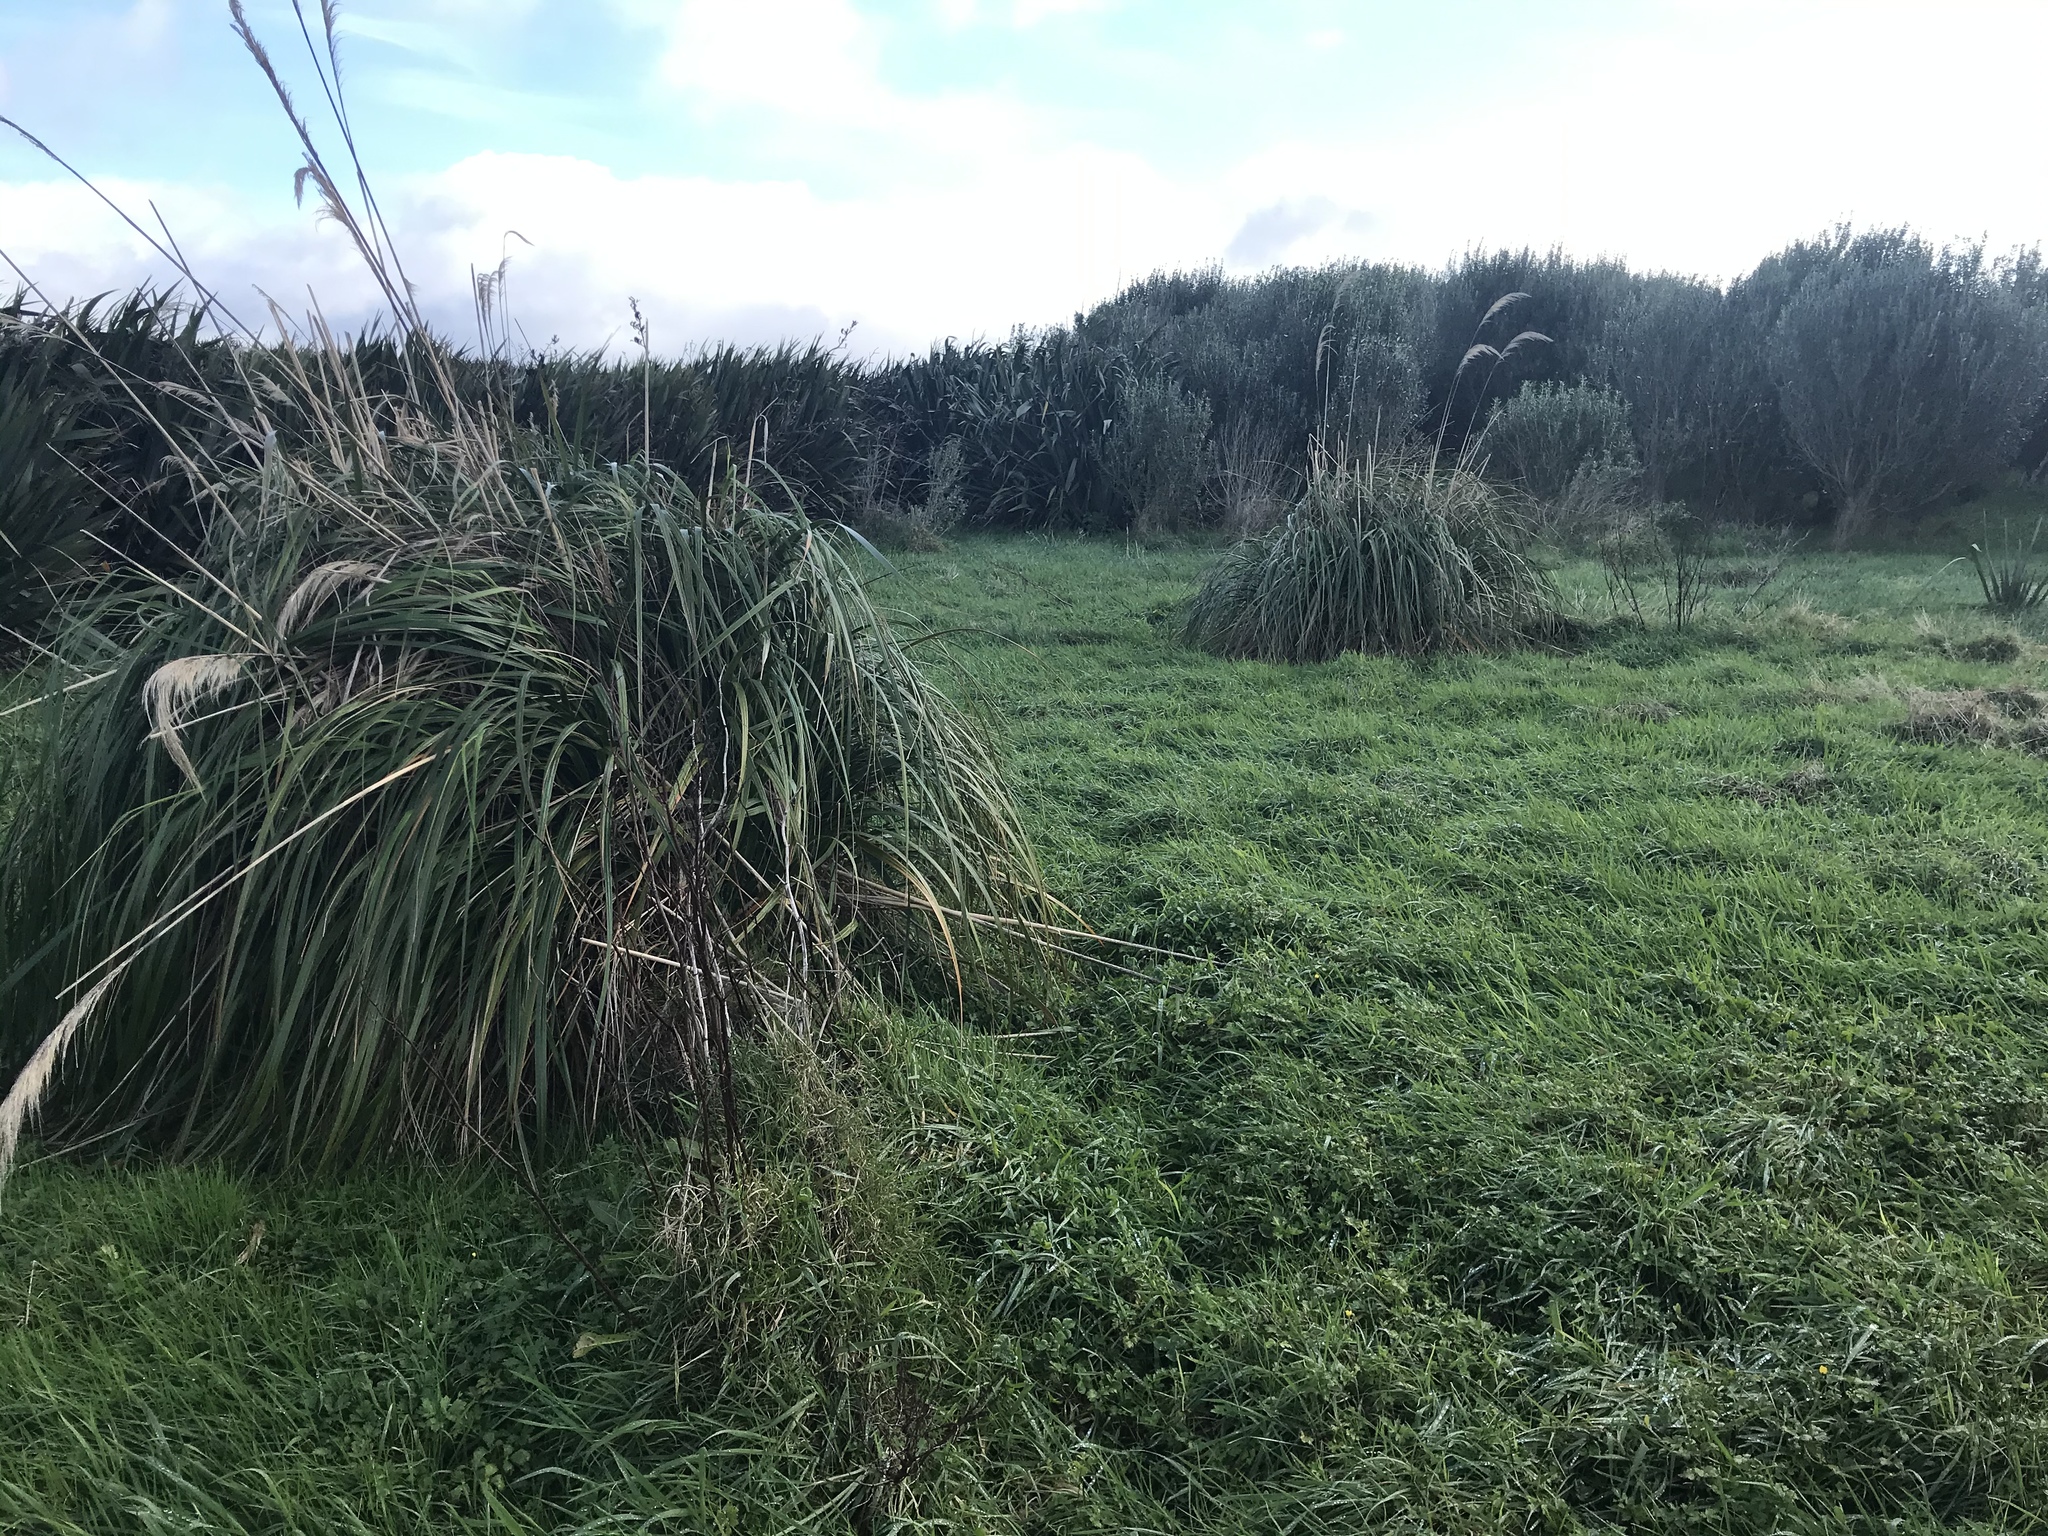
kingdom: Plantae
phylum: Tracheophyta
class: Liliopsida
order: Poales
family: Poaceae
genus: Austroderia
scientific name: Austroderia turbaria
